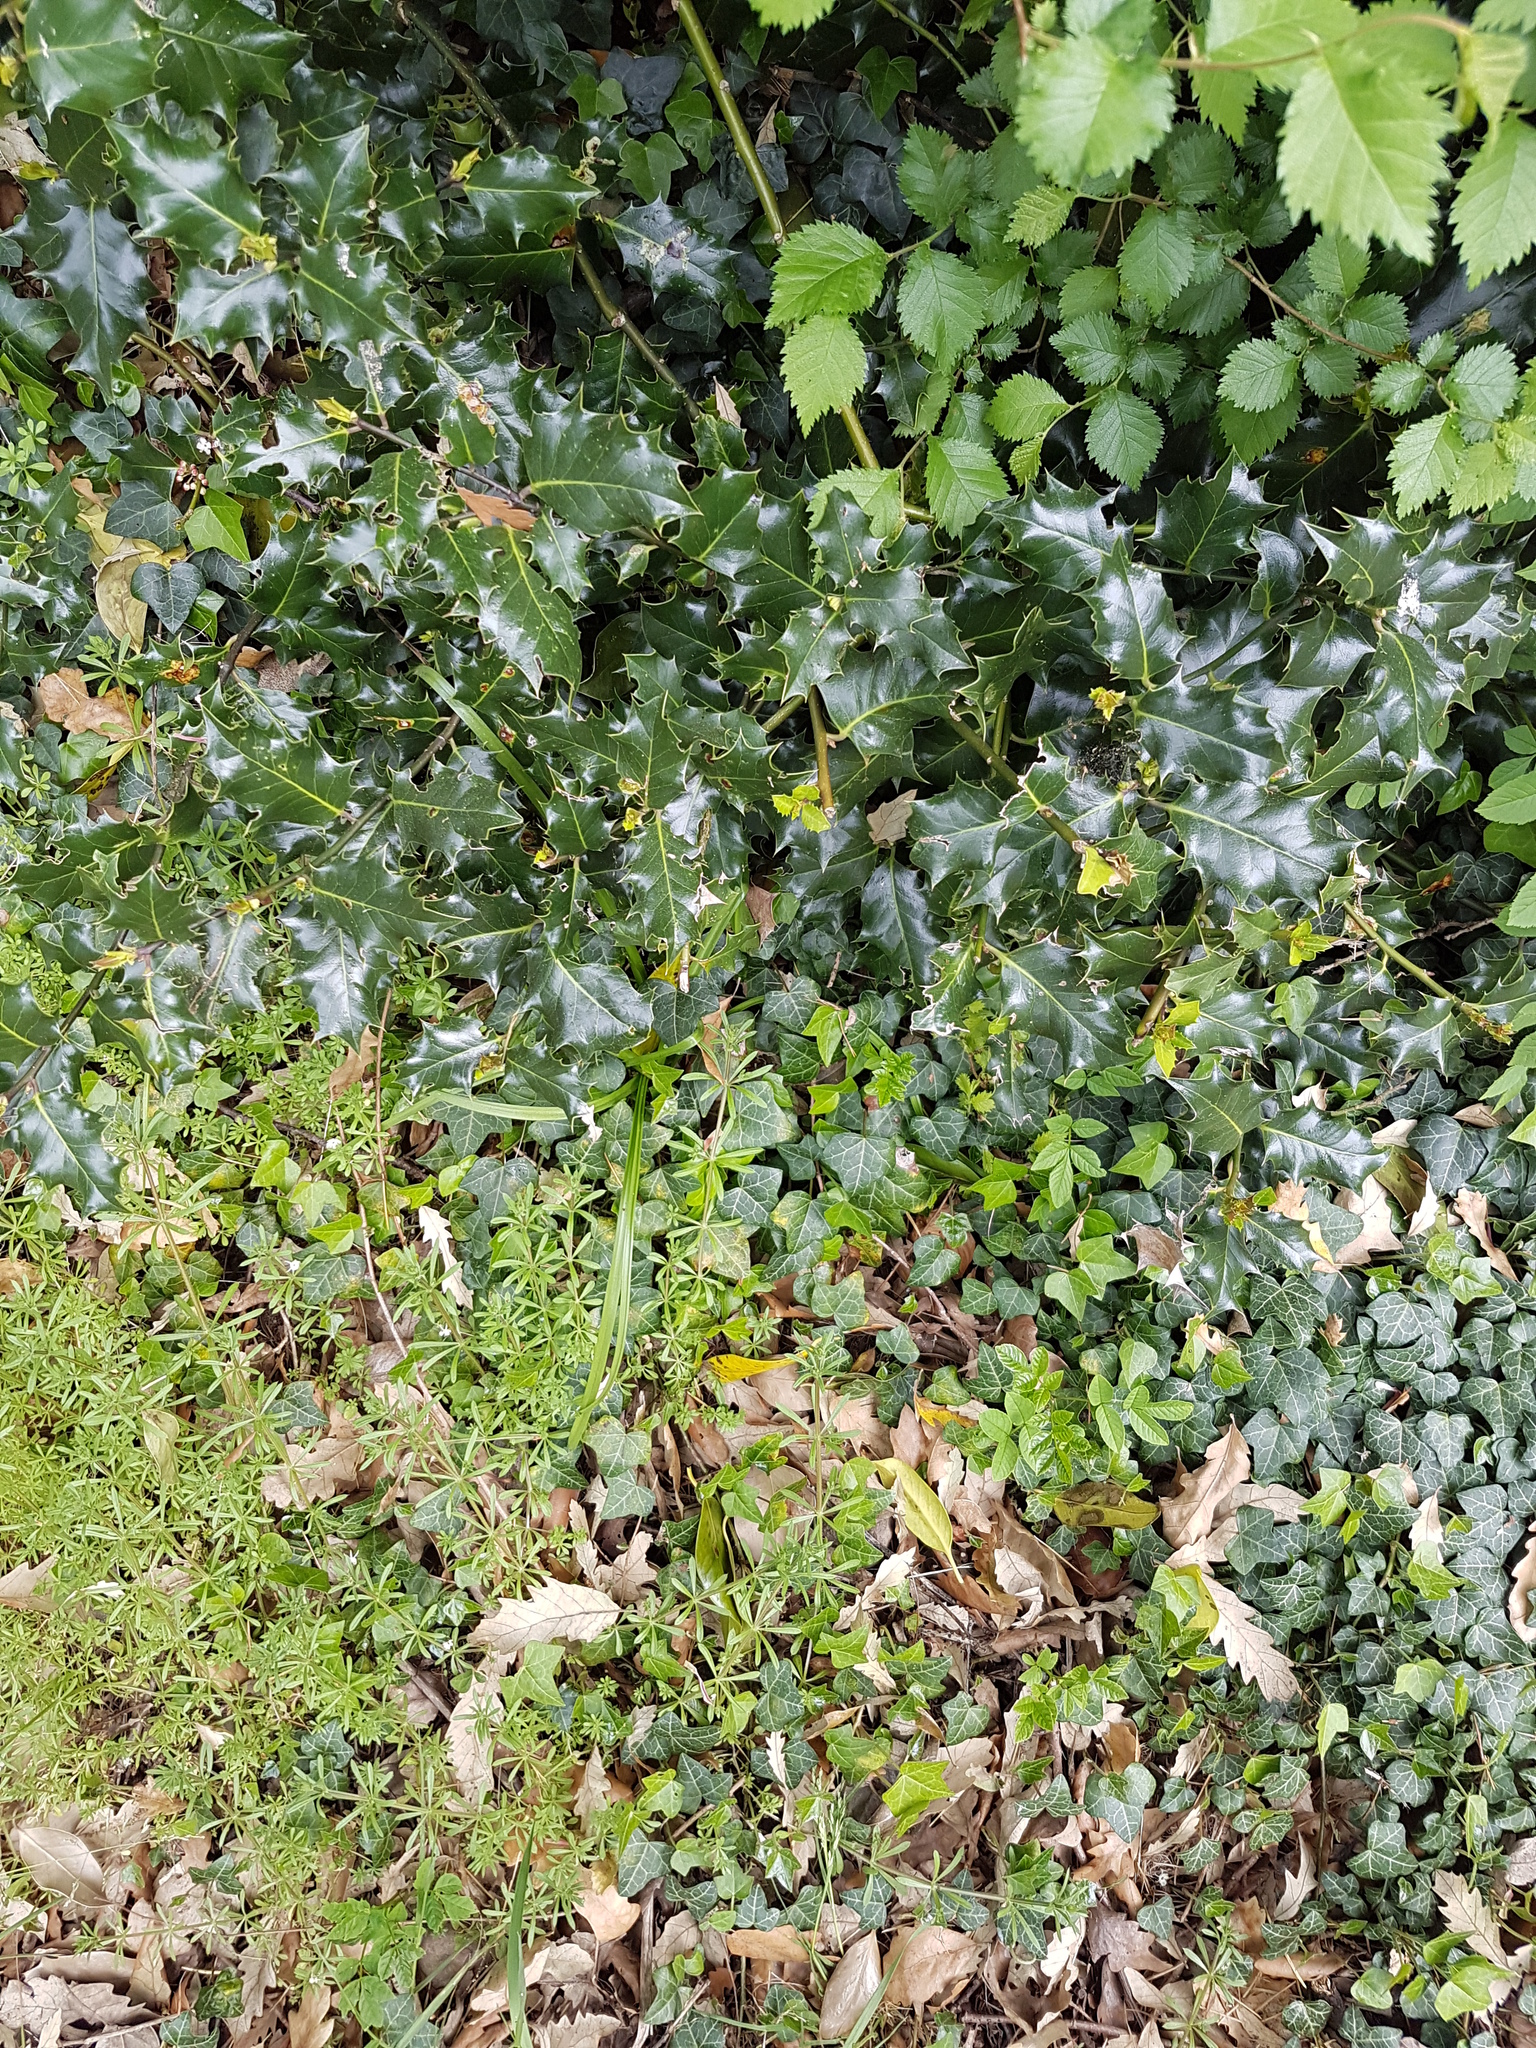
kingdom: Plantae
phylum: Tracheophyta
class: Magnoliopsida
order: Aquifoliales
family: Aquifoliaceae
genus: Ilex
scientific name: Ilex aquifolium
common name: English holly
